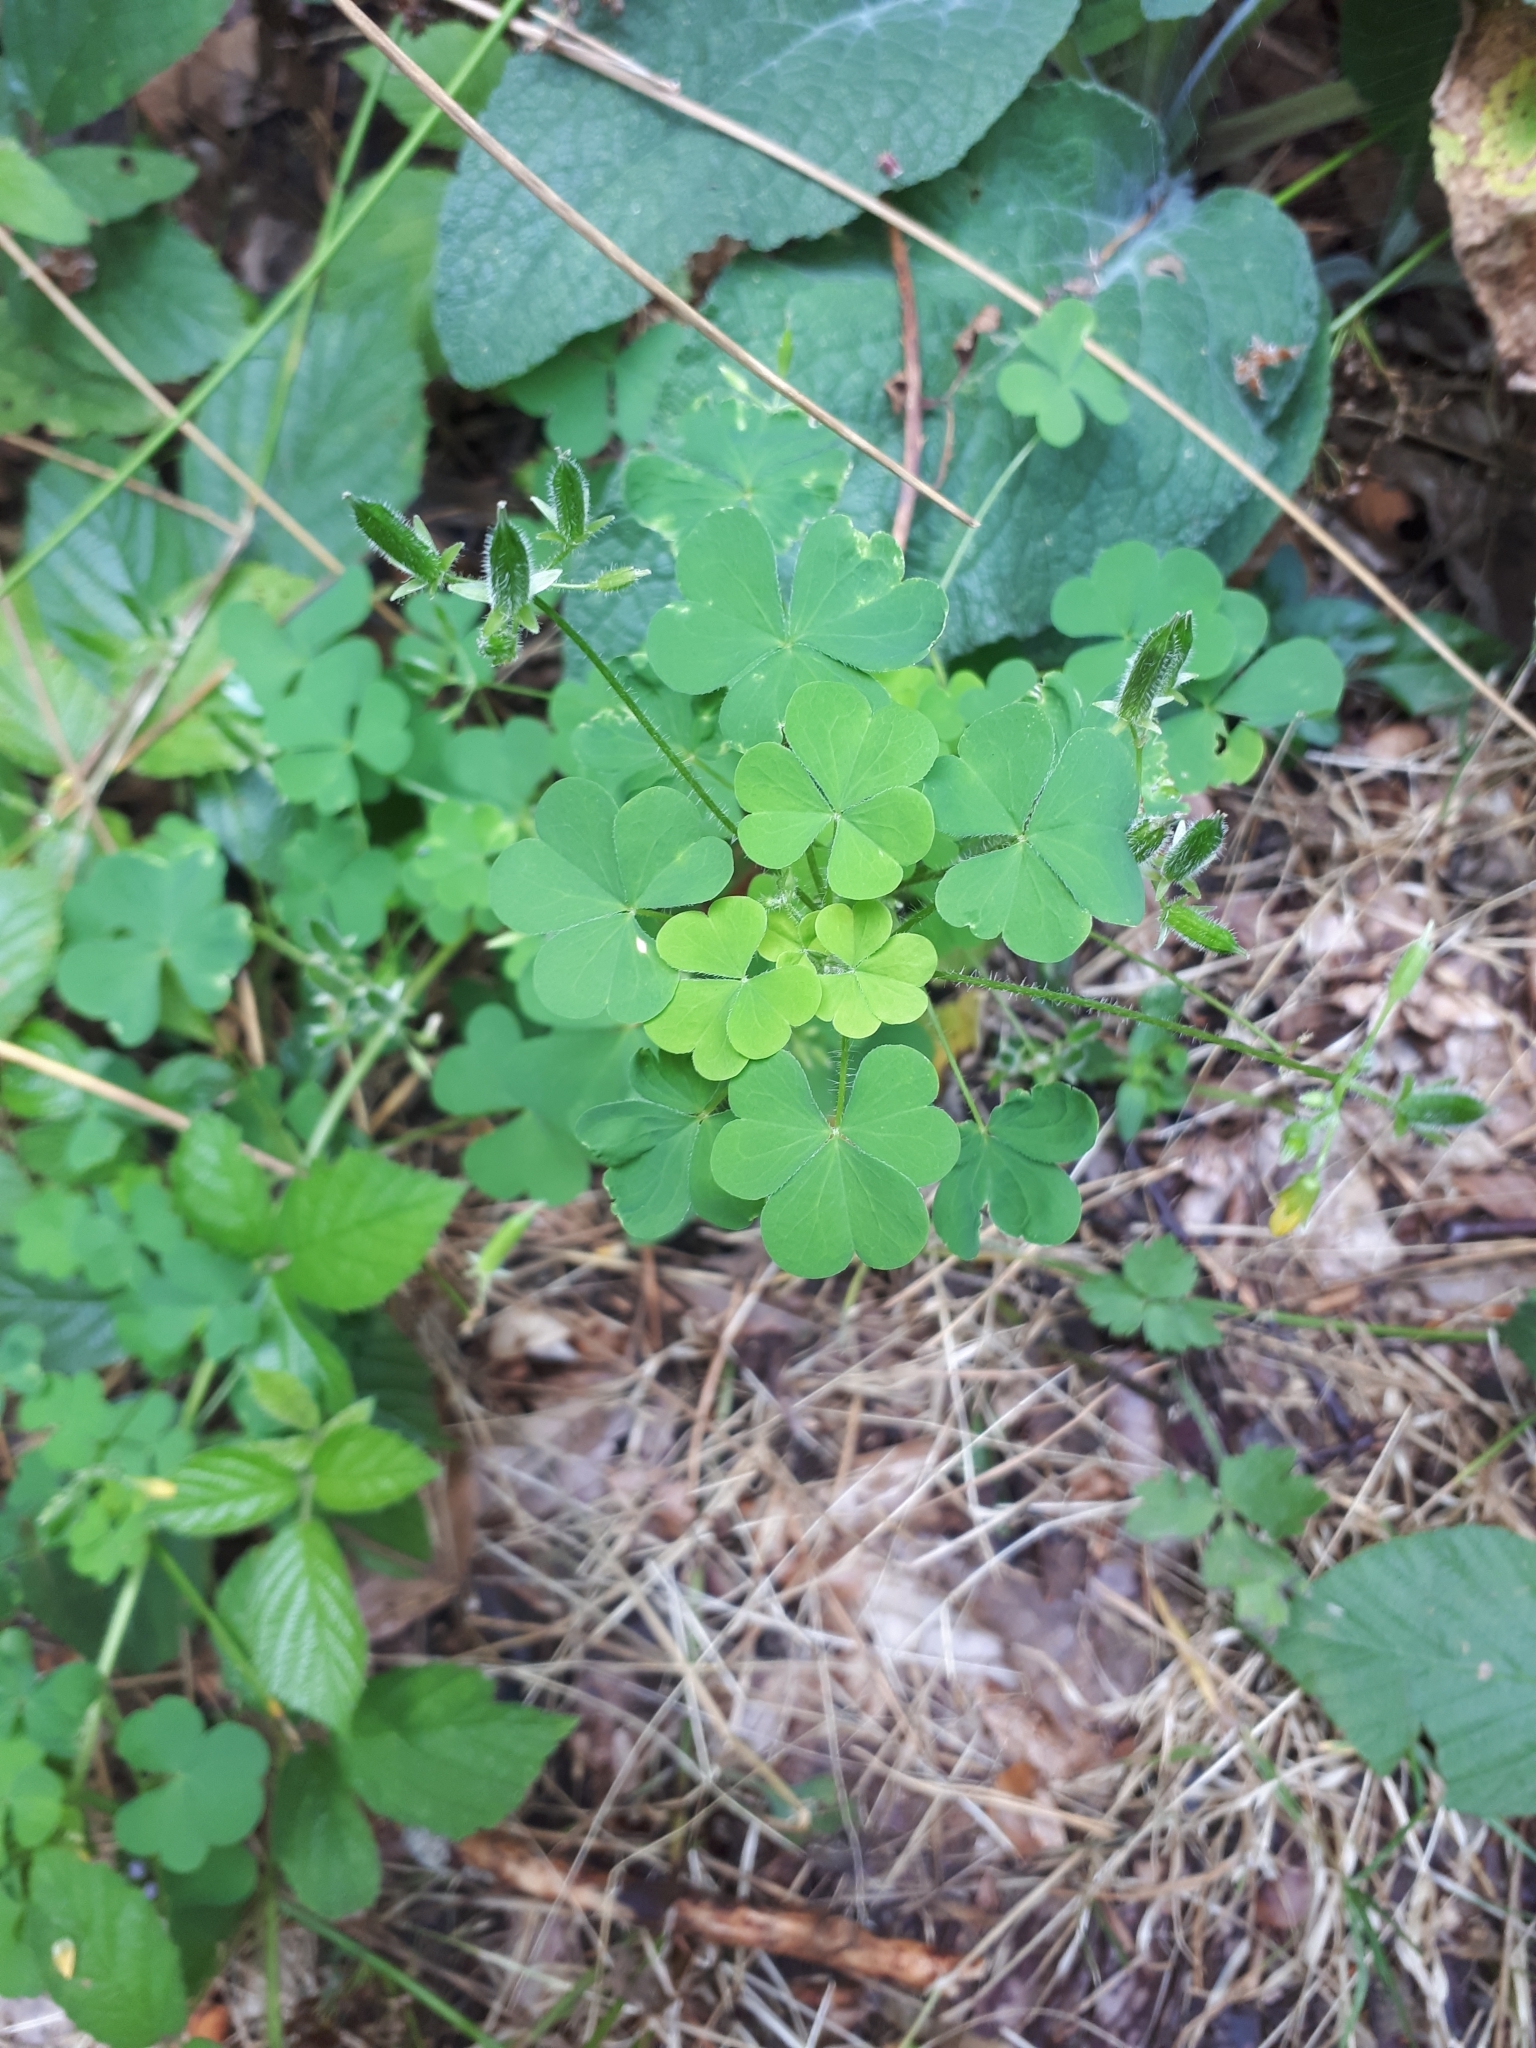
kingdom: Plantae
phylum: Tracheophyta
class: Magnoliopsida
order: Oxalidales
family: Oxalidaceae
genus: Oxalis
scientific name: Oxalis stricta
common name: Upright yellow-sorrel
